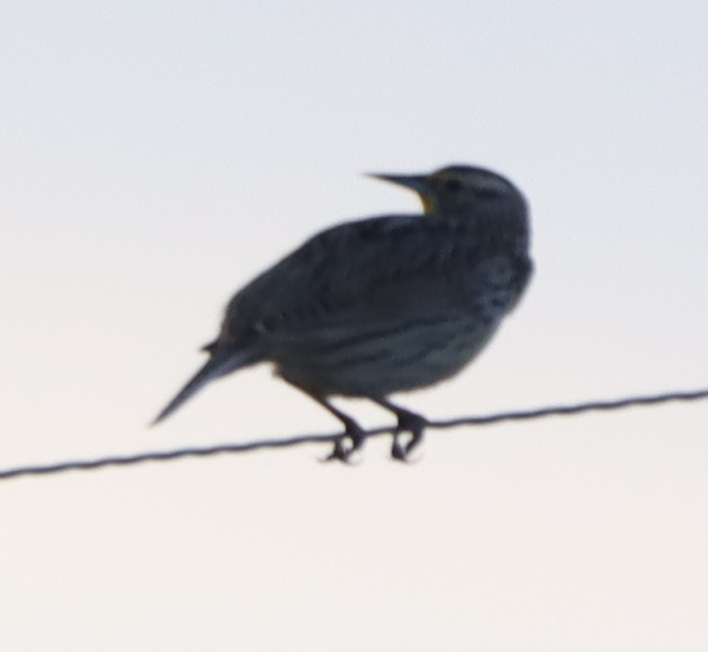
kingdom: Animalia
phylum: Chordata
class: Aves
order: Passeriformes
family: Icteridae
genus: Sturnella
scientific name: Sturnella neglecta
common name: Western meadowlark
